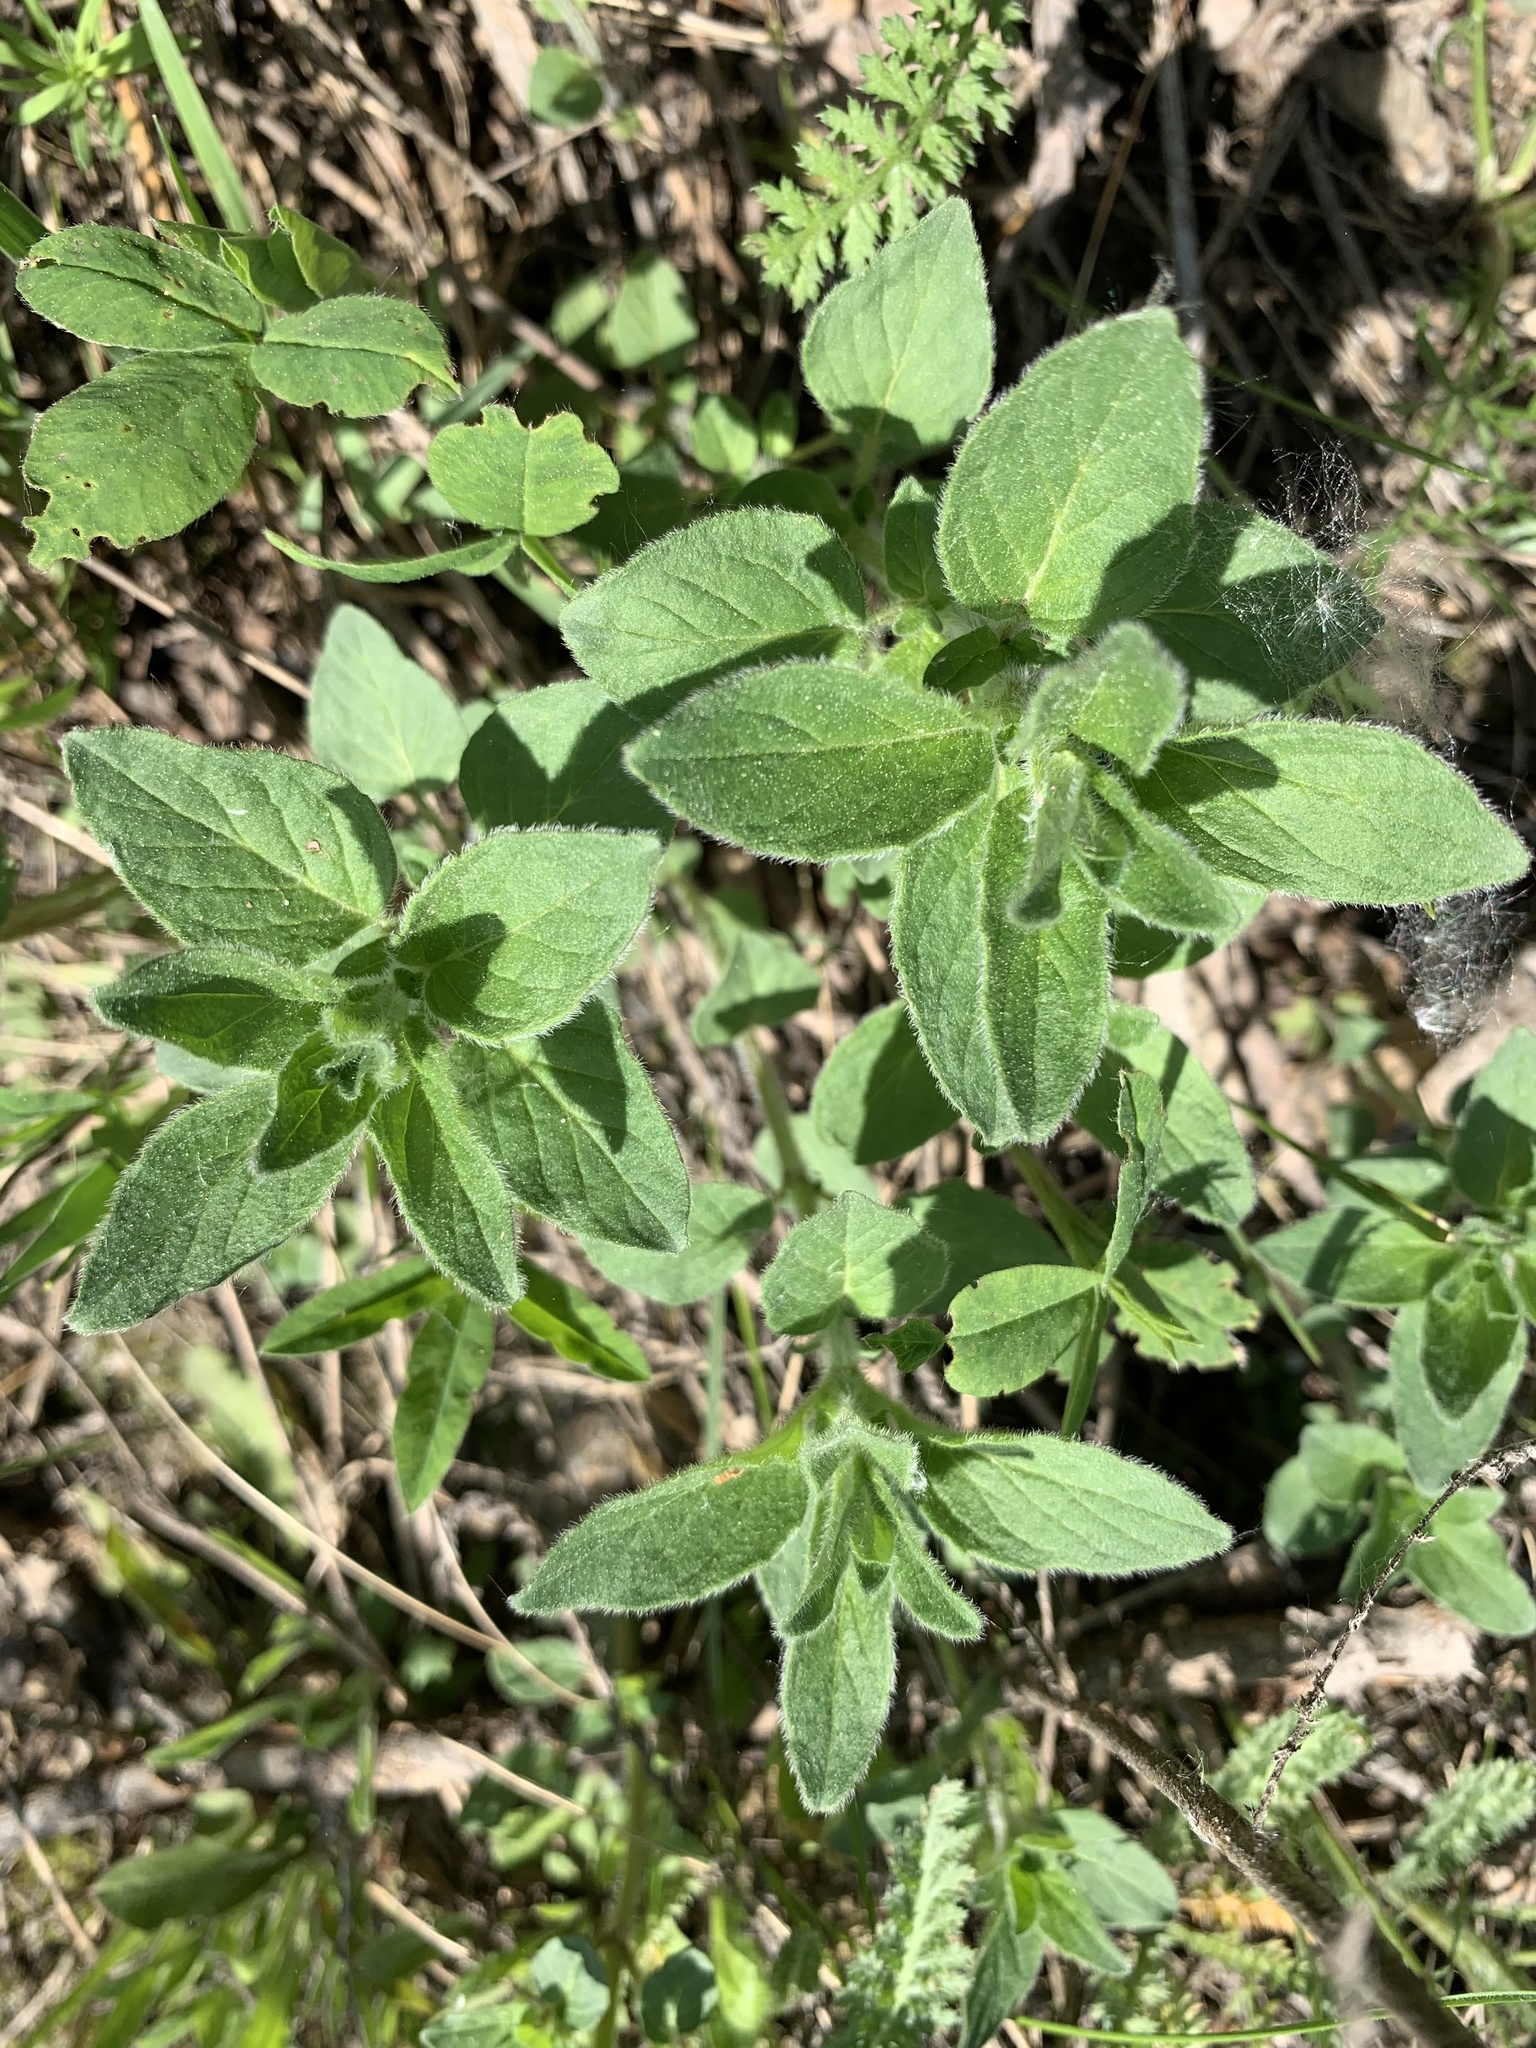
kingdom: Plantae
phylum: Tracheophyta
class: Magnoliopsida
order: Lamiales
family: Lamiaceae
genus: Origanum
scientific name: Origanum vulgare
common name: Wild marjoram
